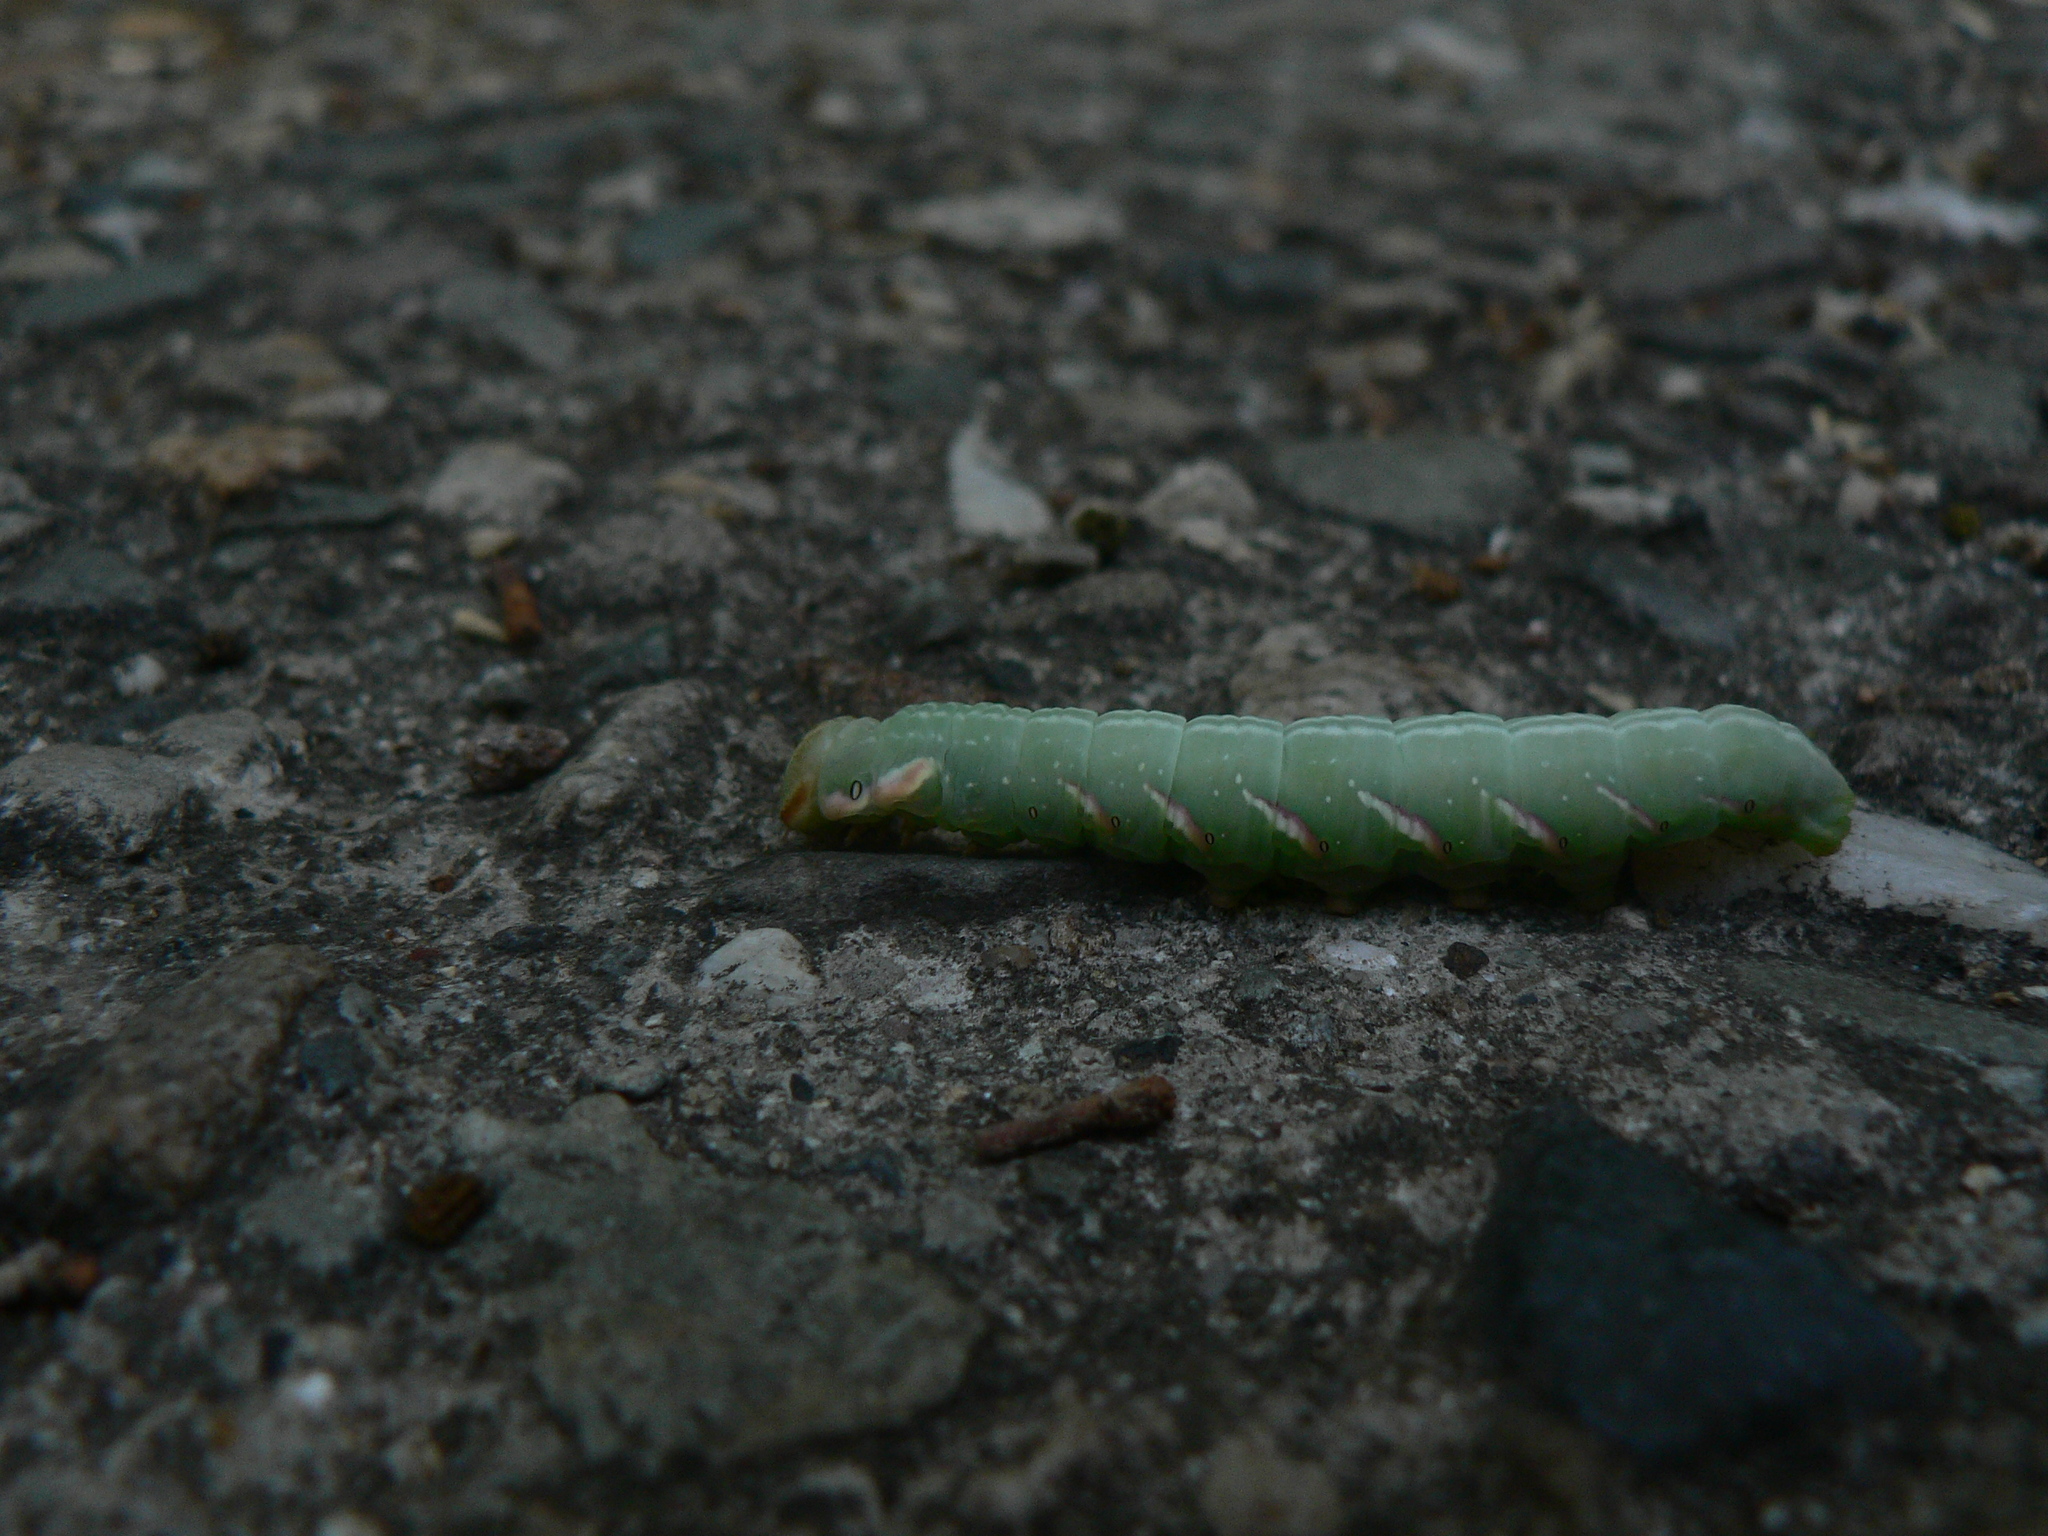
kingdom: Animalia
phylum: Arthropoda
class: Insecta
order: Lepidoptera
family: Notodontidae
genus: Peridea
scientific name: Peridea anceps
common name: Great prominent
